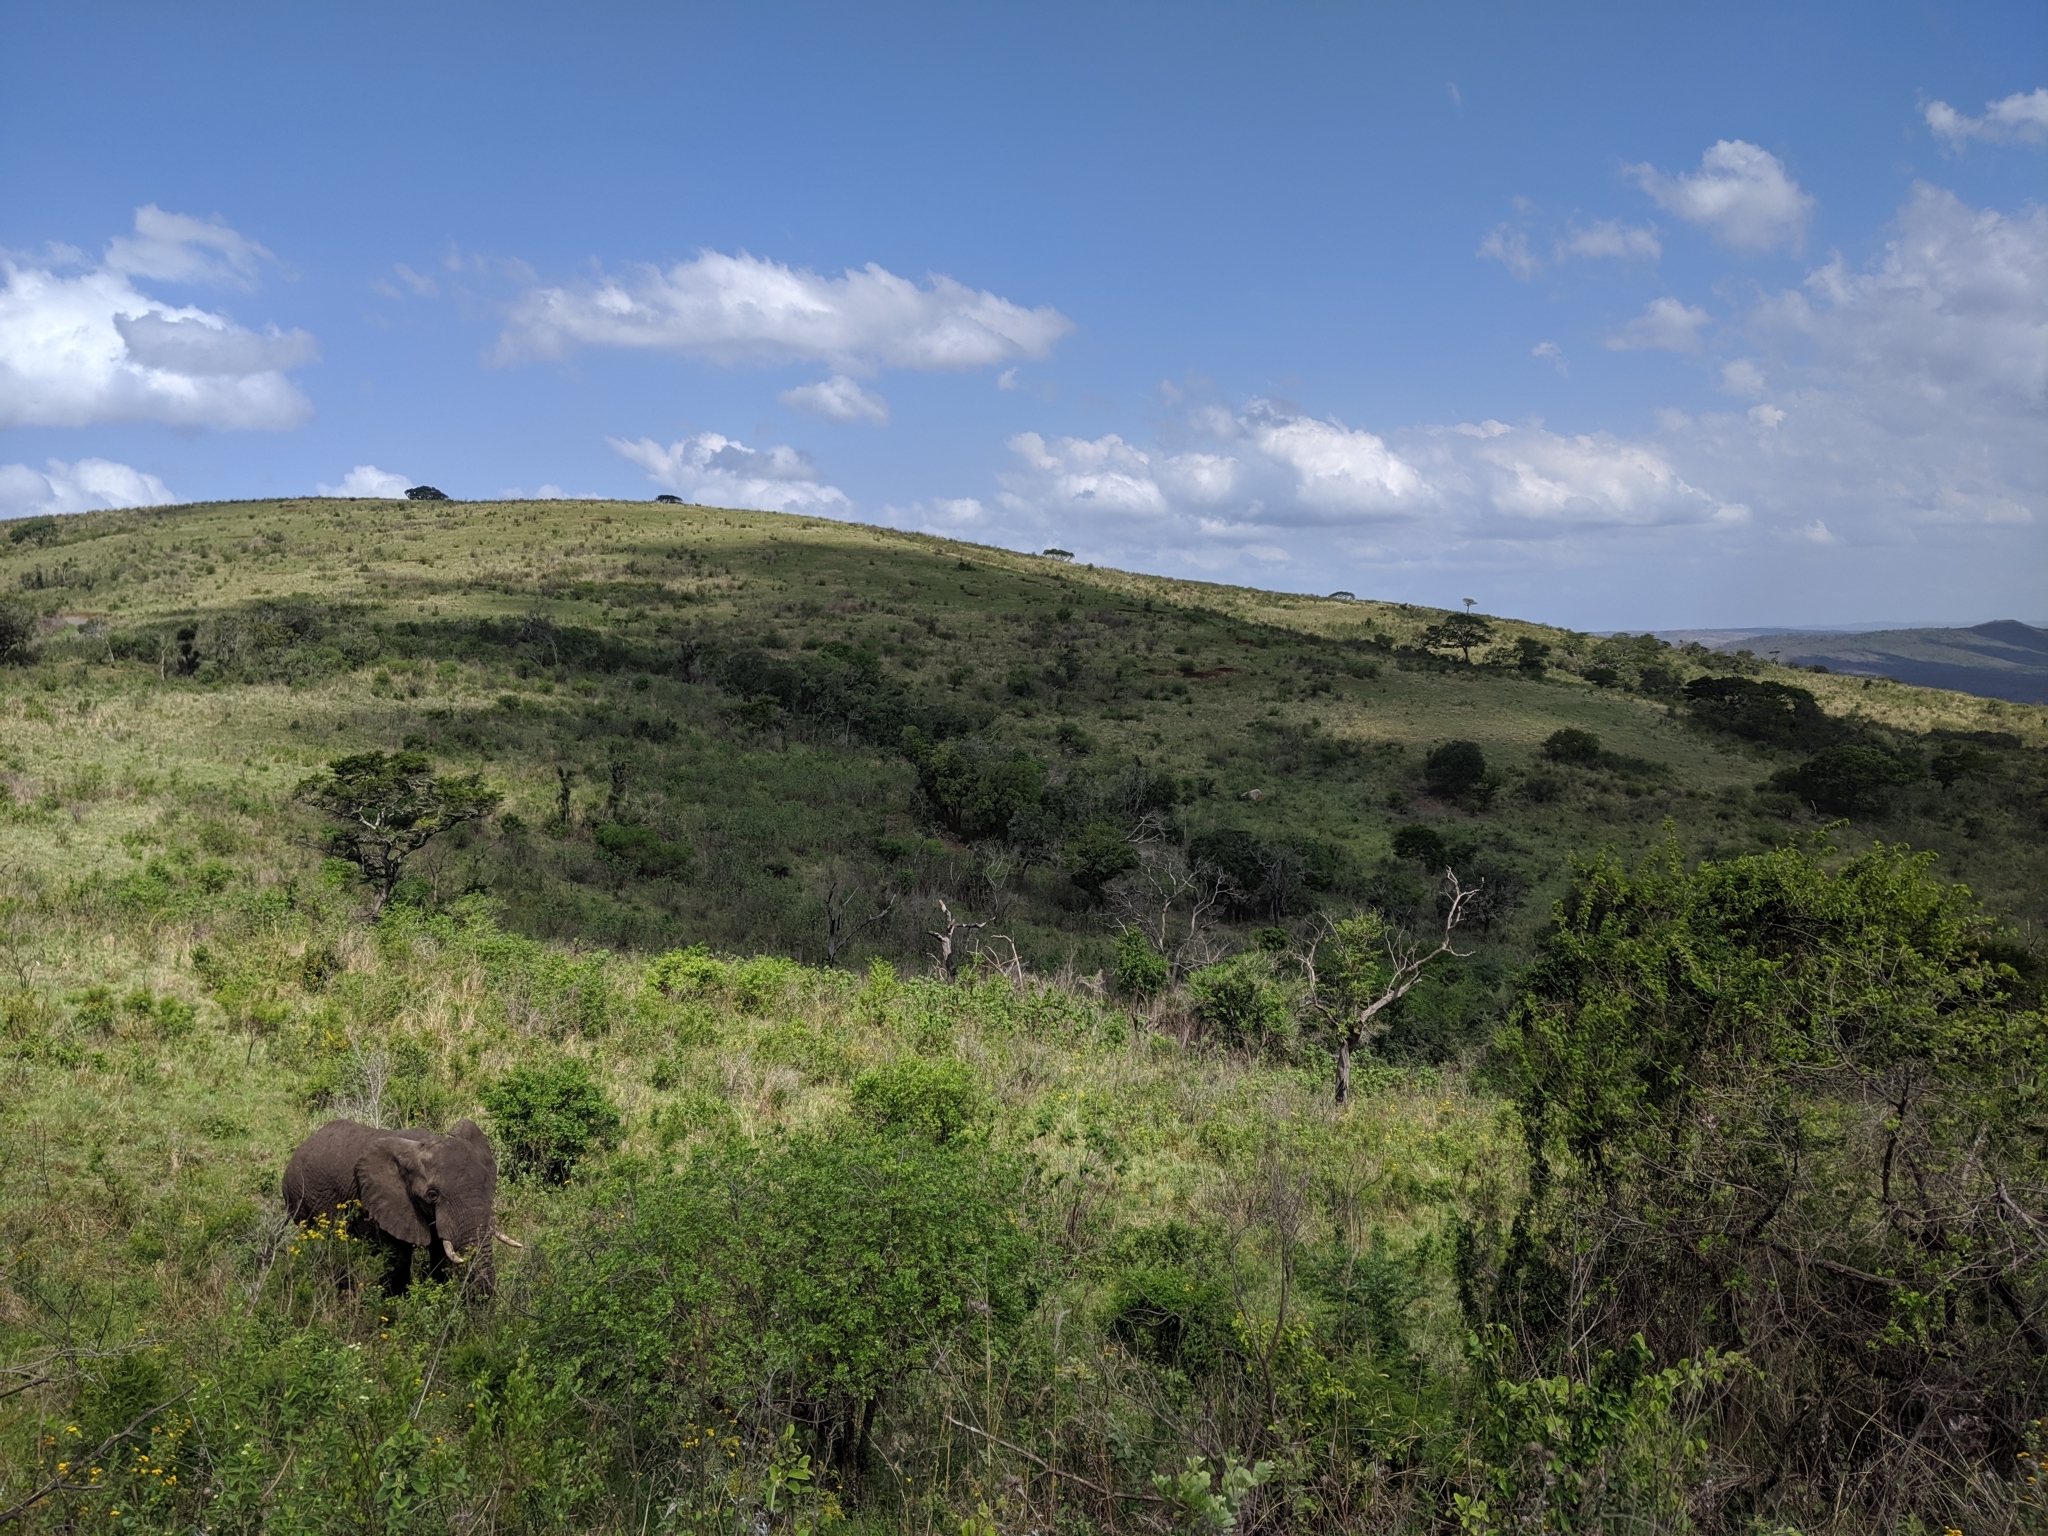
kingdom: Animalia
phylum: Chordata
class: Mammalia
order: Proboscidea
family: Elephantidae
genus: Loxodonta
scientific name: Loxodonta africana
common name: African elephant
